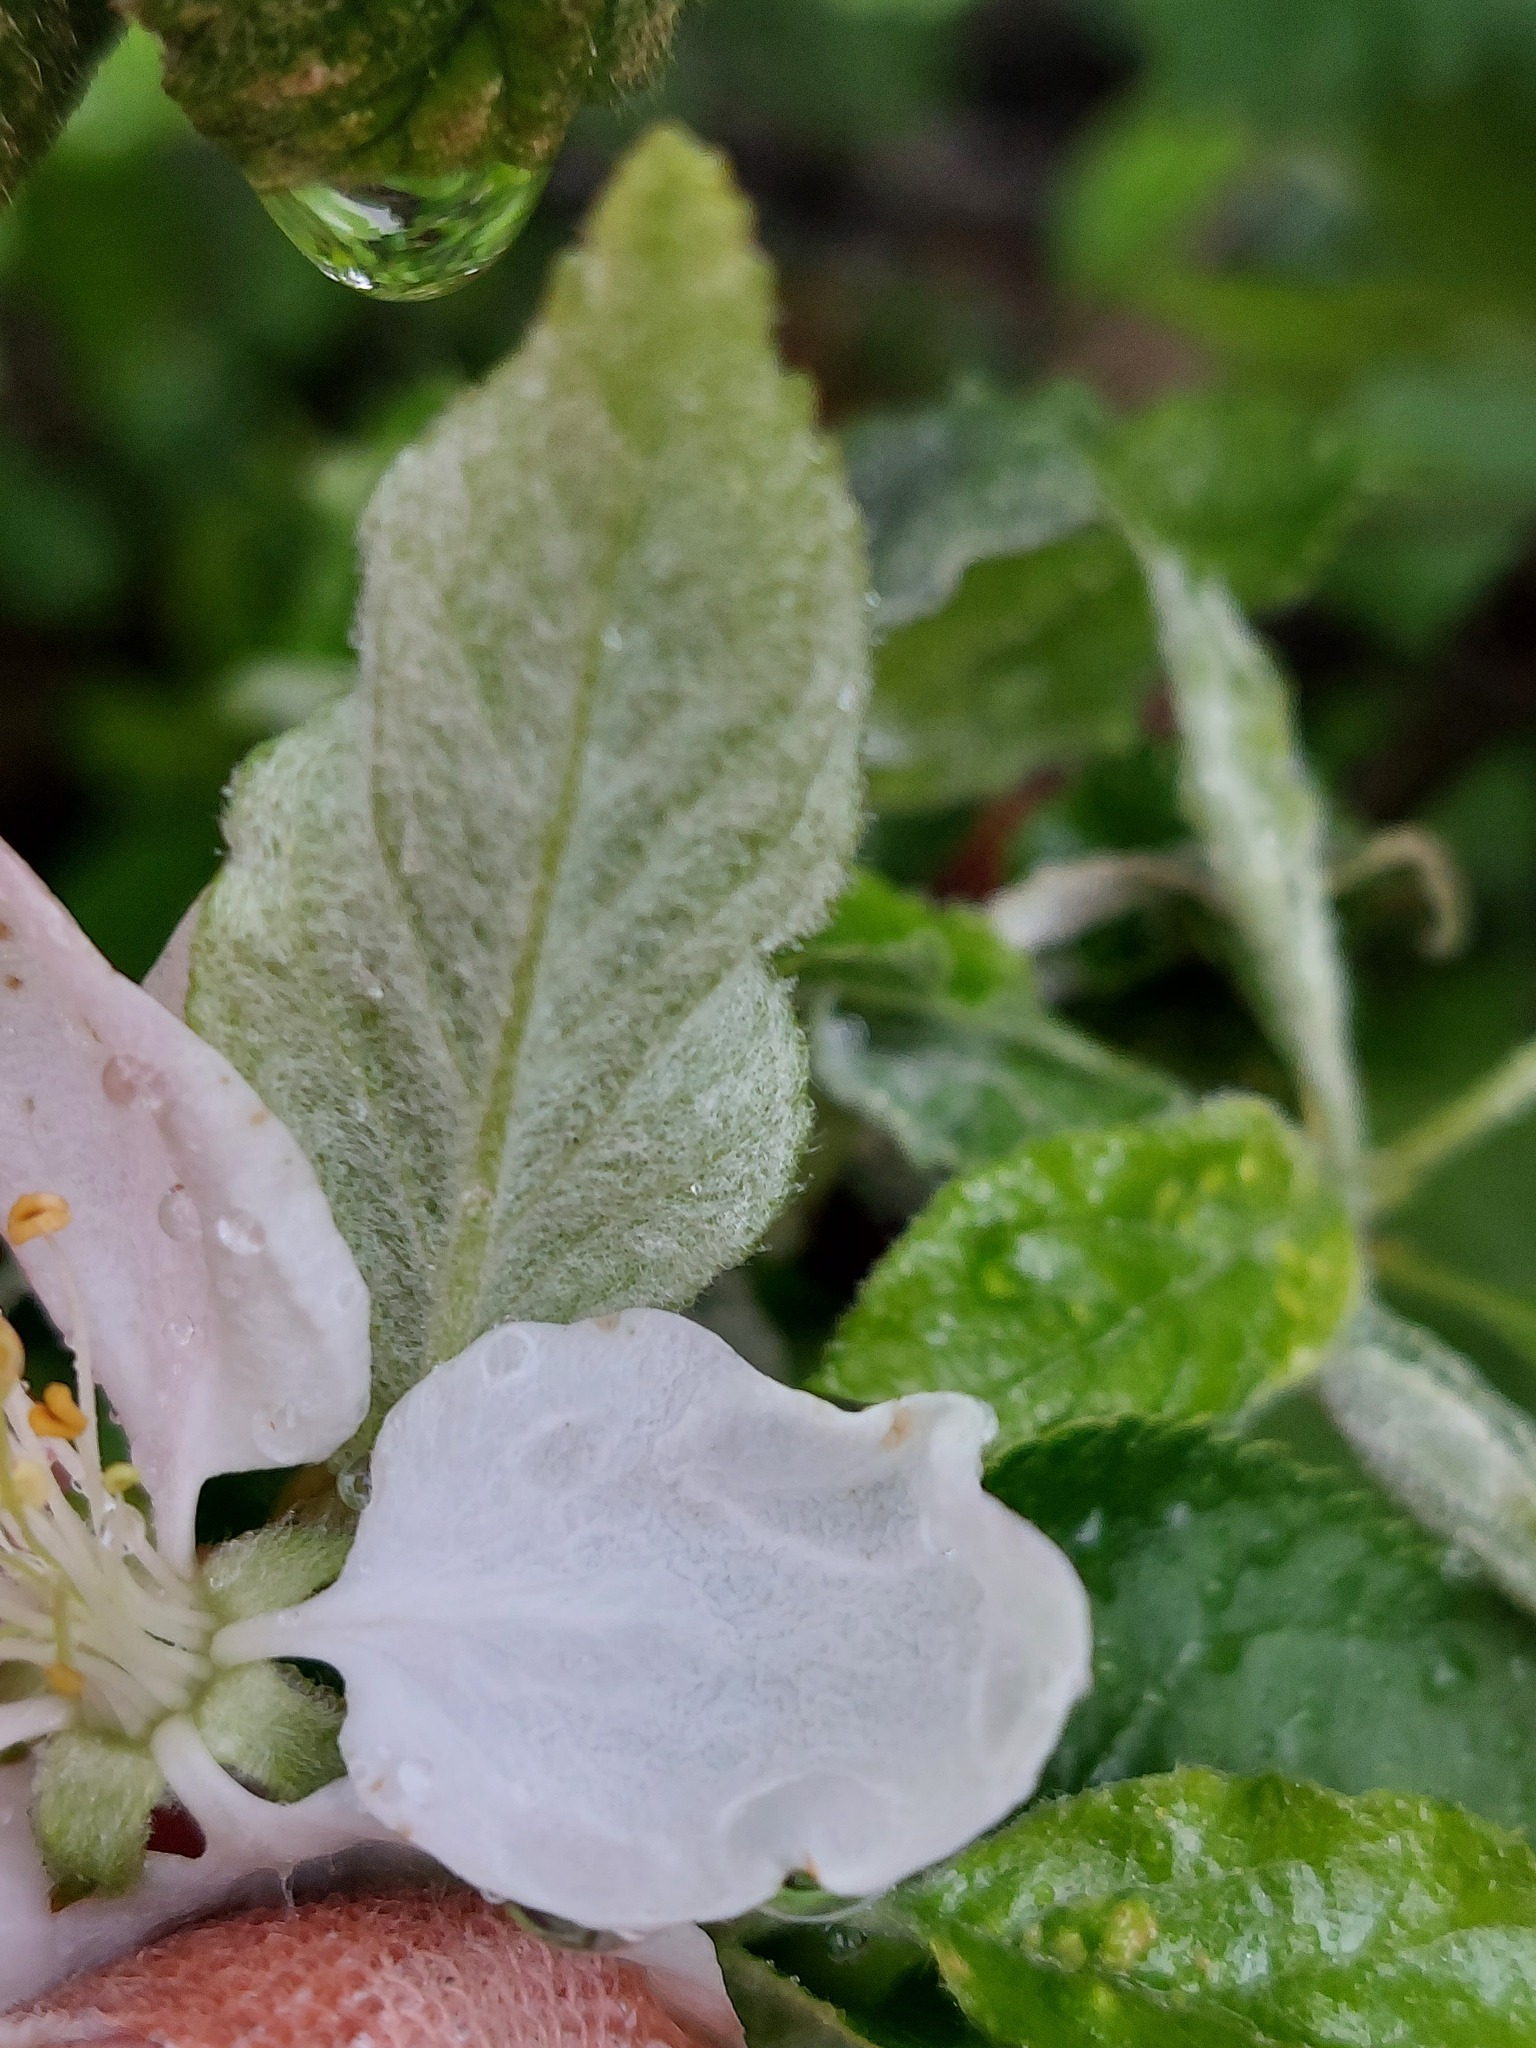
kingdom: Plantae
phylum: Tracheophyta
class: Magnoliopsida
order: Rosales
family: Rosaceae
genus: Malus
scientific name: Malus domestica
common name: Apple
